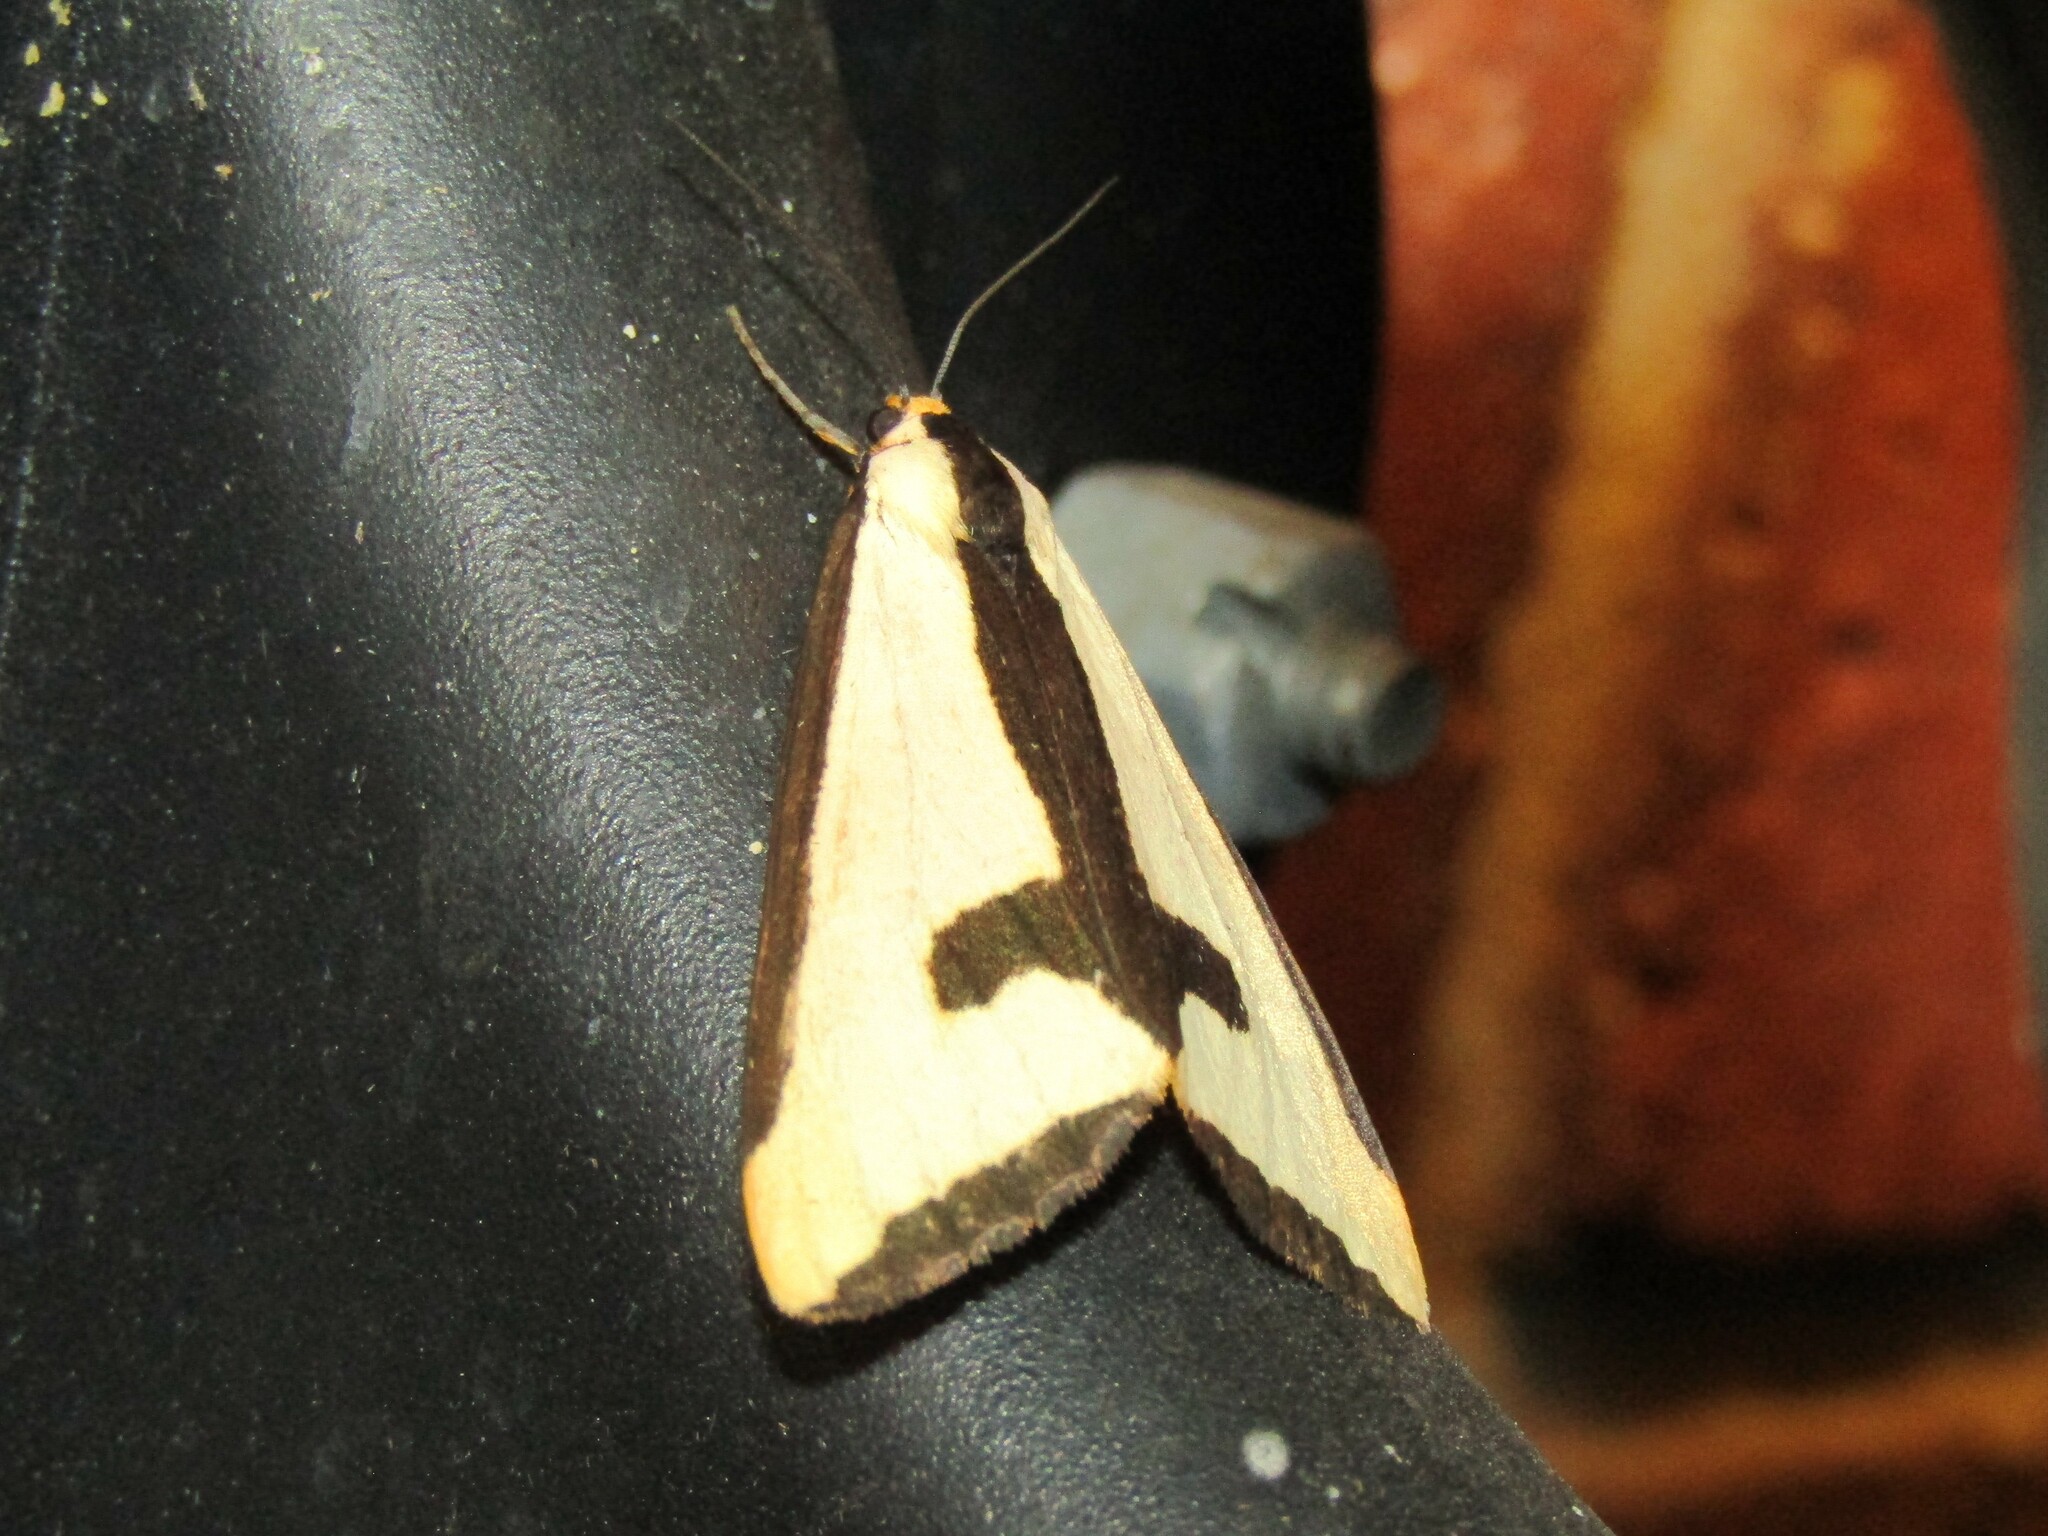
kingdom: Animalia
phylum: Arthropoda
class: Insecta
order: Lepidoptera
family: Erebidae
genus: Haploa
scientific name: Haploa clymene
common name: Clymene moth
